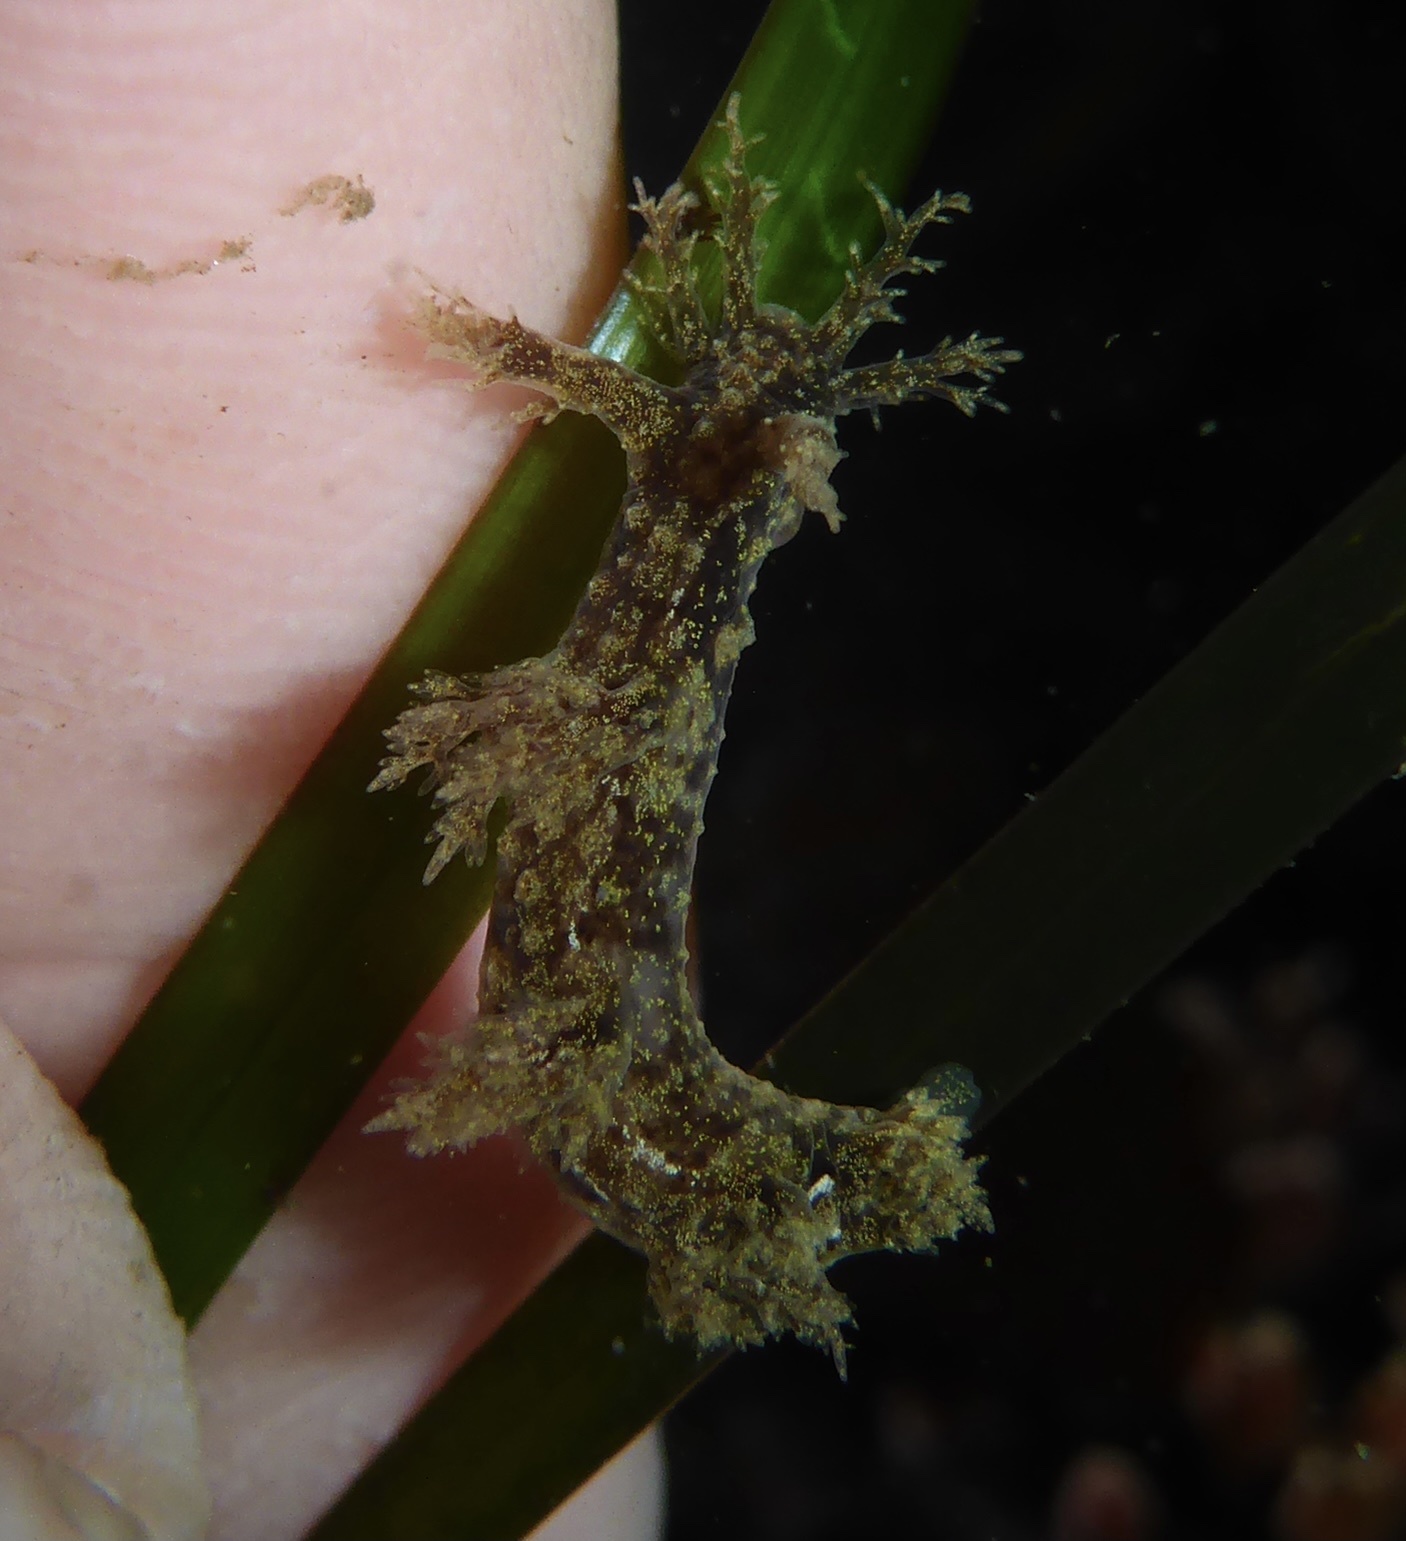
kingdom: Animalia
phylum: Mollusca
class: Gastropoda
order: Nudibranchia
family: Dendronotidae
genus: Dendronotus
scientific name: Dendronotus venustus
